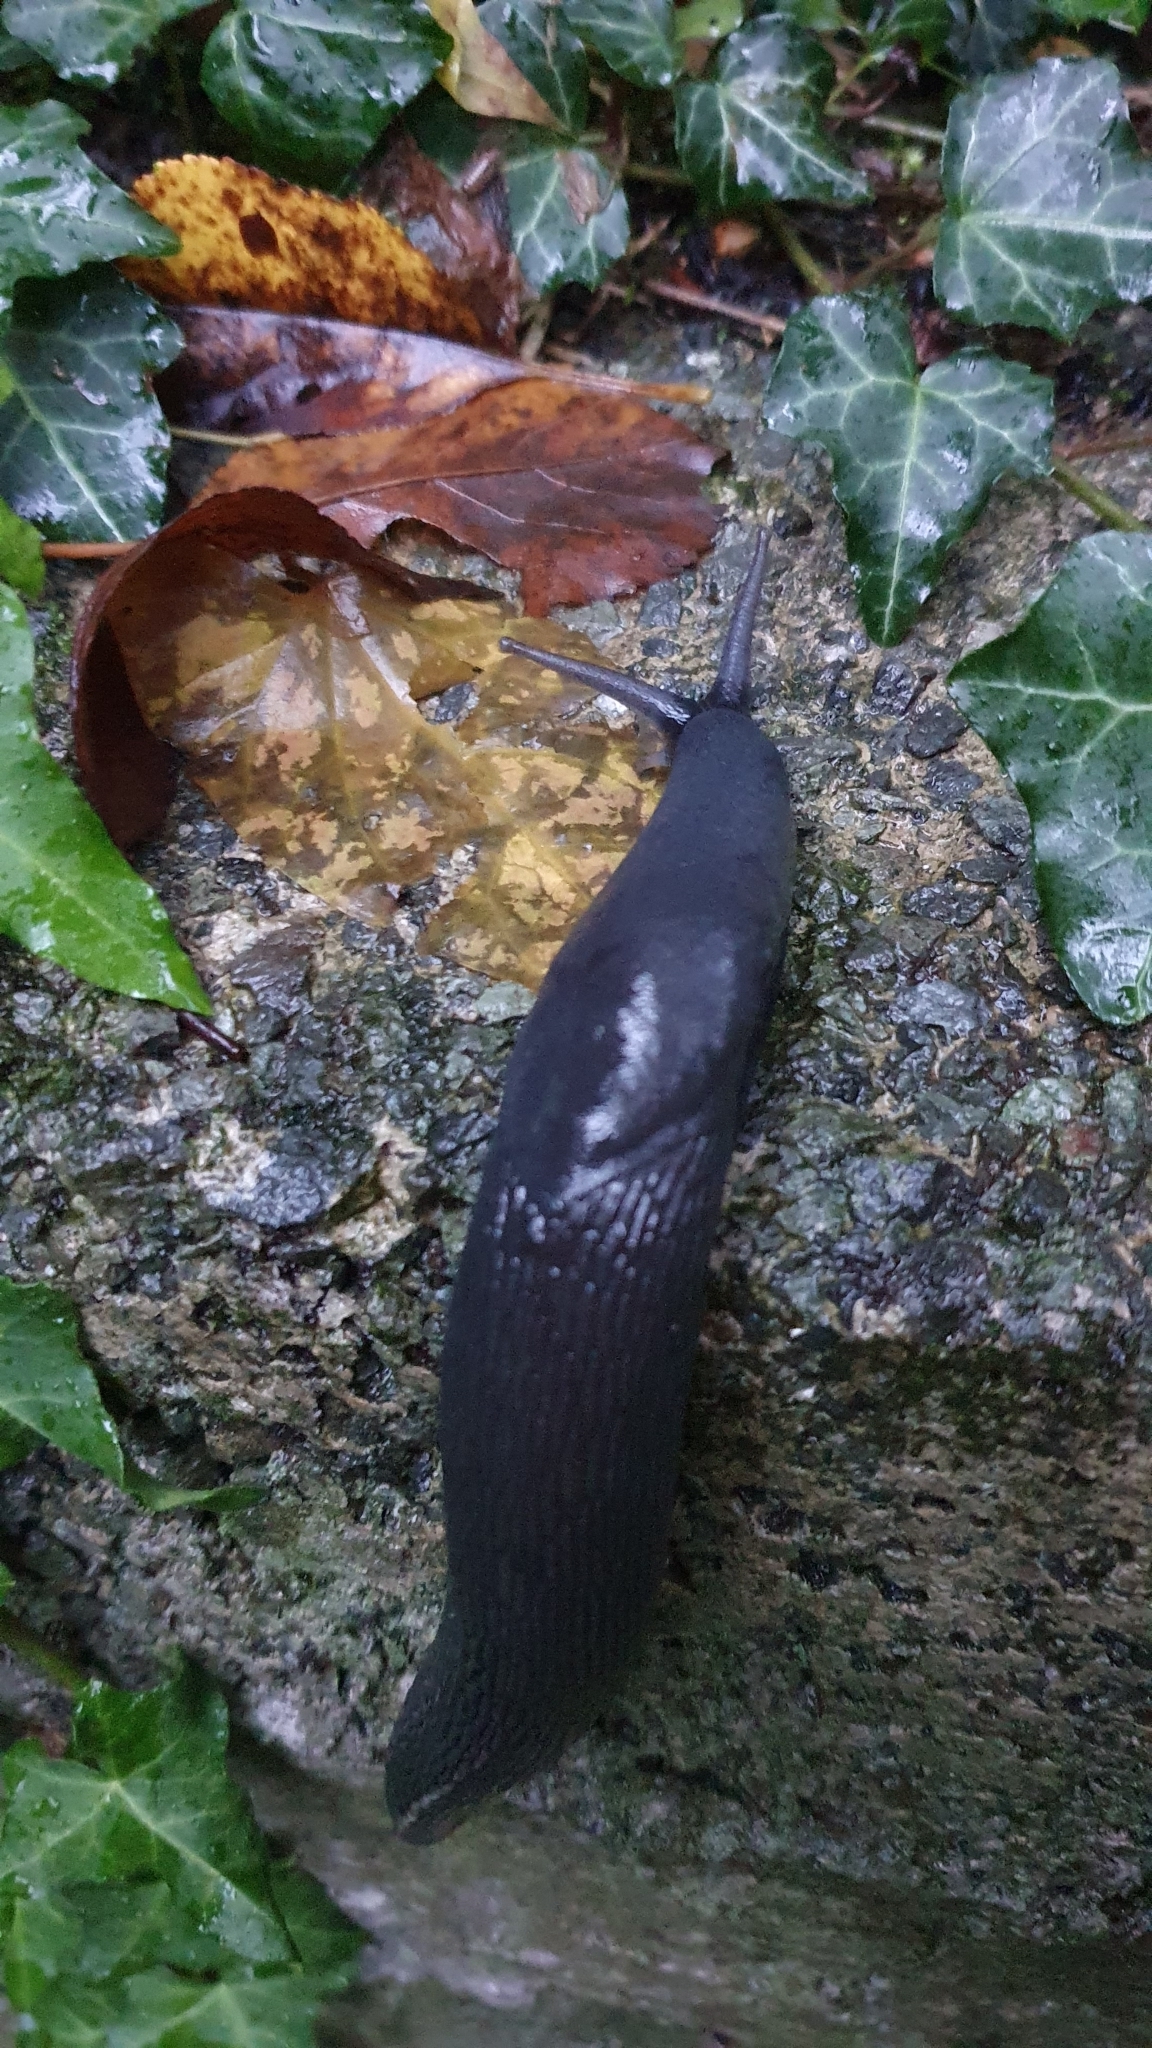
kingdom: Animalia
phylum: Mollusca
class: Gastropoda
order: Stylommatophora
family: Limacidae
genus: Limax
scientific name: Limax cinereoniger
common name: Ash-black slug
